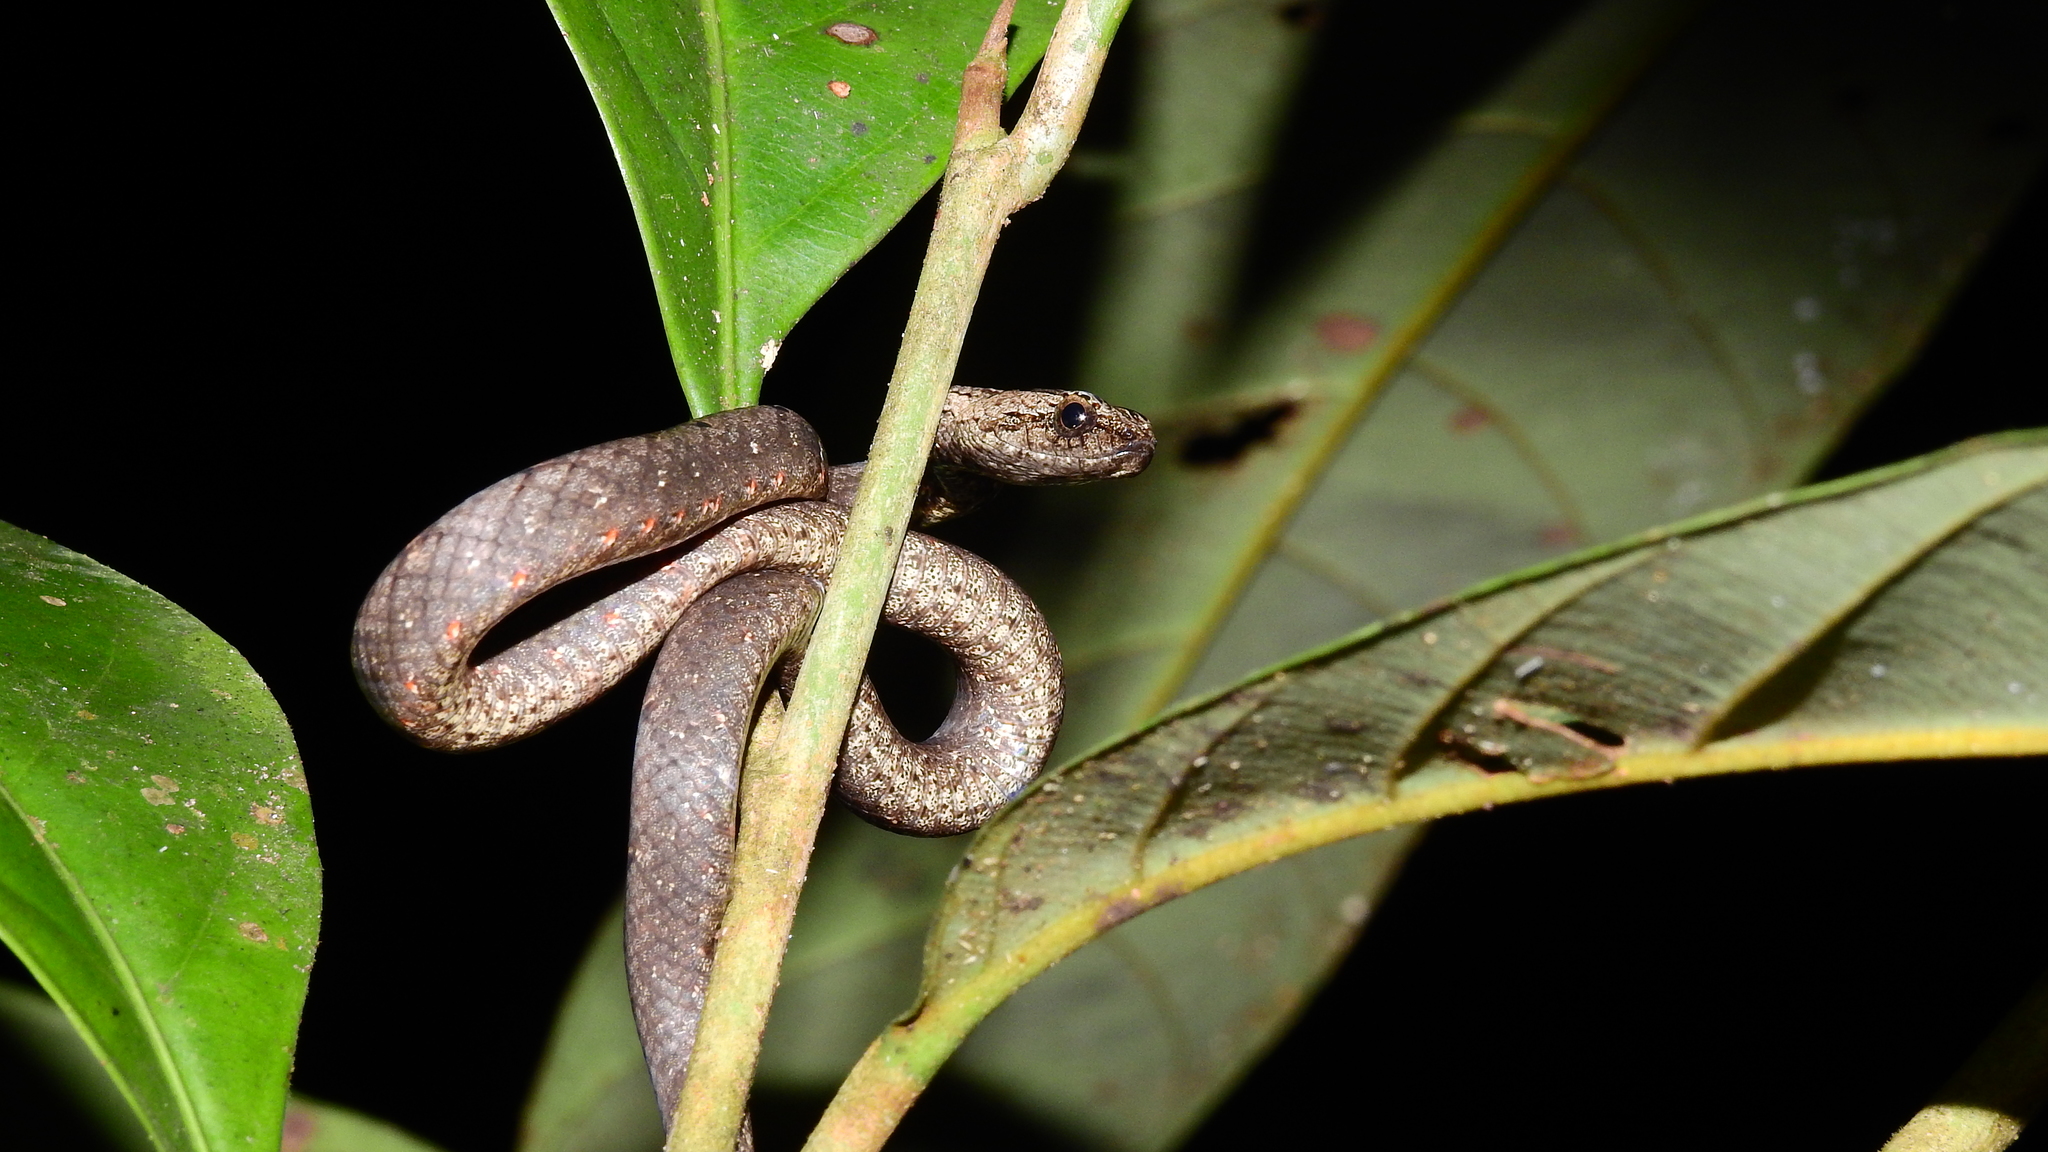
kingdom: Animalia
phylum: Chordata
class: Squamata
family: Pseudaspididae
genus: Psammodynastes
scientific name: Psammodynastes pulverulentus
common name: Common mock viper
